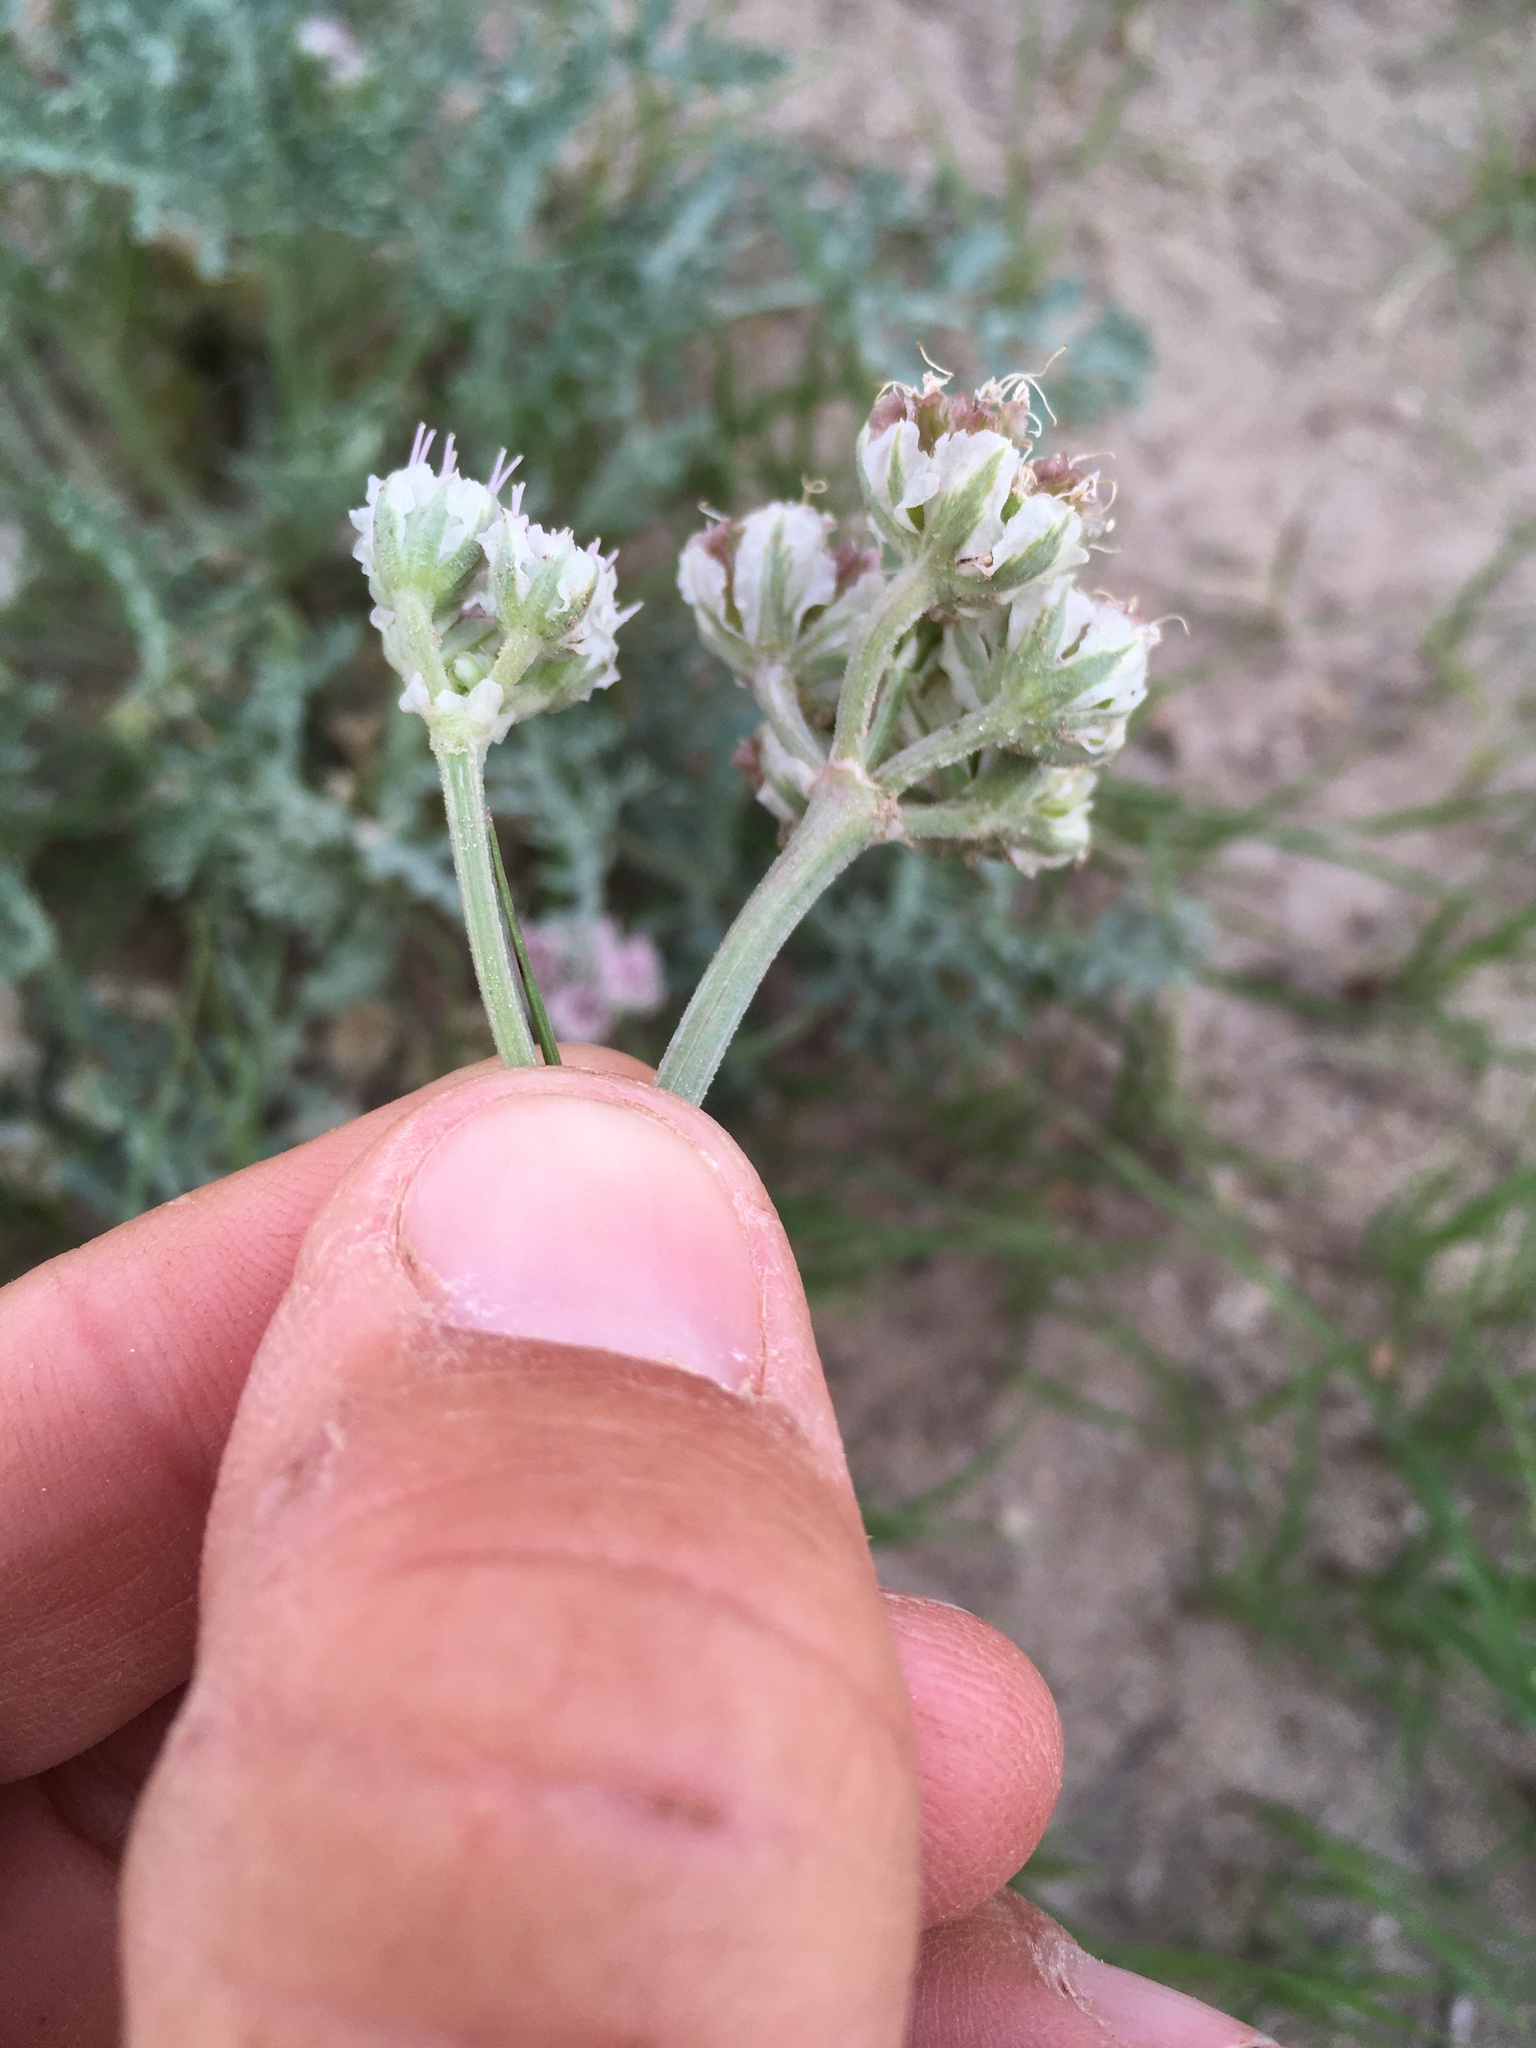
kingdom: Plantae
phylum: Tracheophyta
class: Magnoliopsida
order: Apiales
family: Apiaceae
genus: Vesper
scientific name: Vesper montanus
